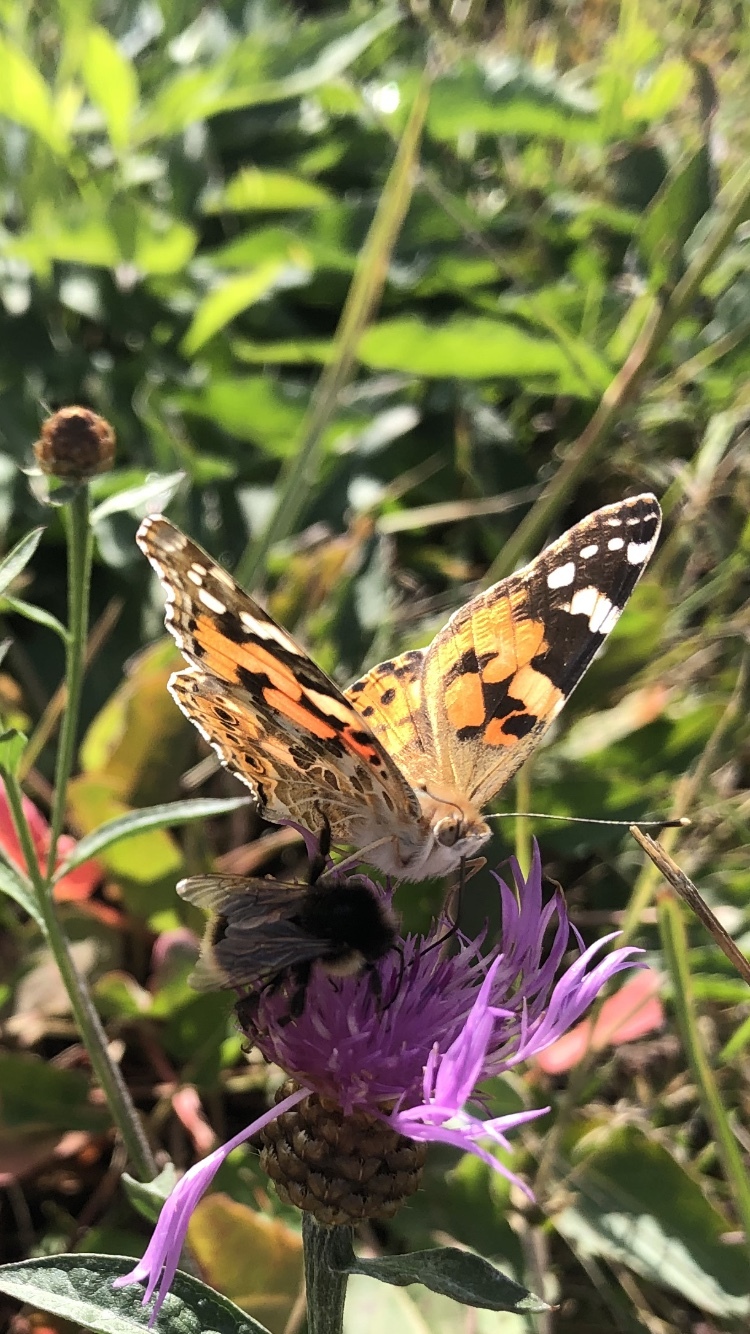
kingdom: Animalia
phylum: Arthropoda
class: Insecta
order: Lepidoptera
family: Nymphalidae
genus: Vanessa
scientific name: Vanessa cardui
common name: Painted lady
